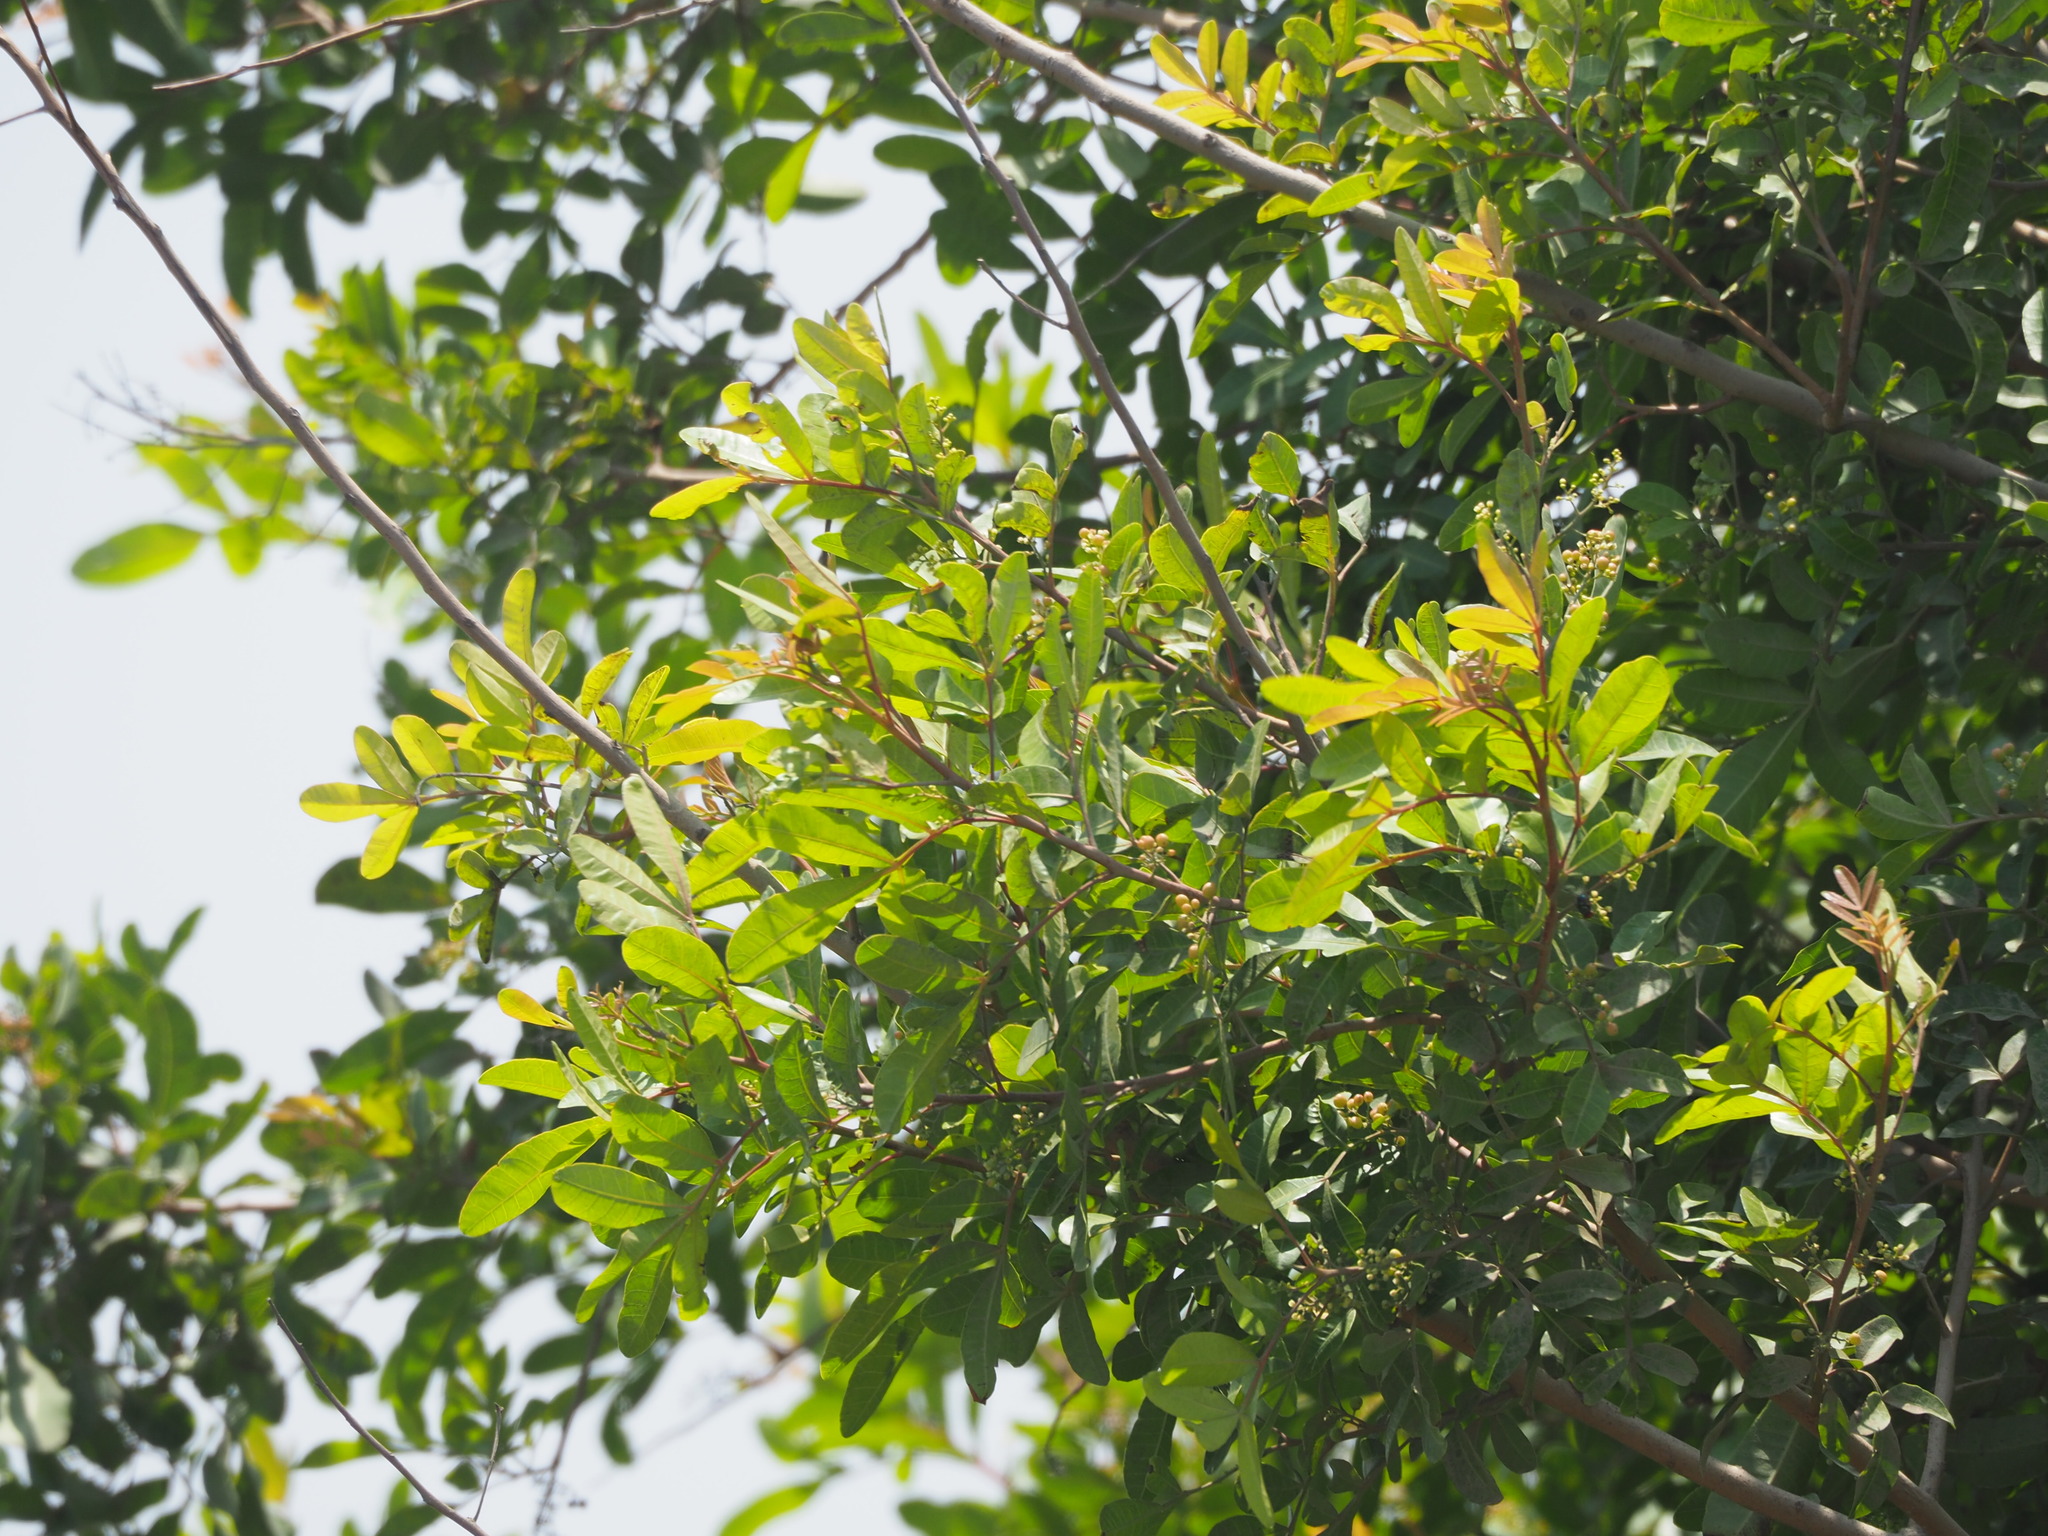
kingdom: Plantae
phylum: Tracheophyta
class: Magnoliopsida
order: Sapindales
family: Anacardiaceae
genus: Schinus
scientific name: Schinus terebinthifolia
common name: Brazilian peppertree
